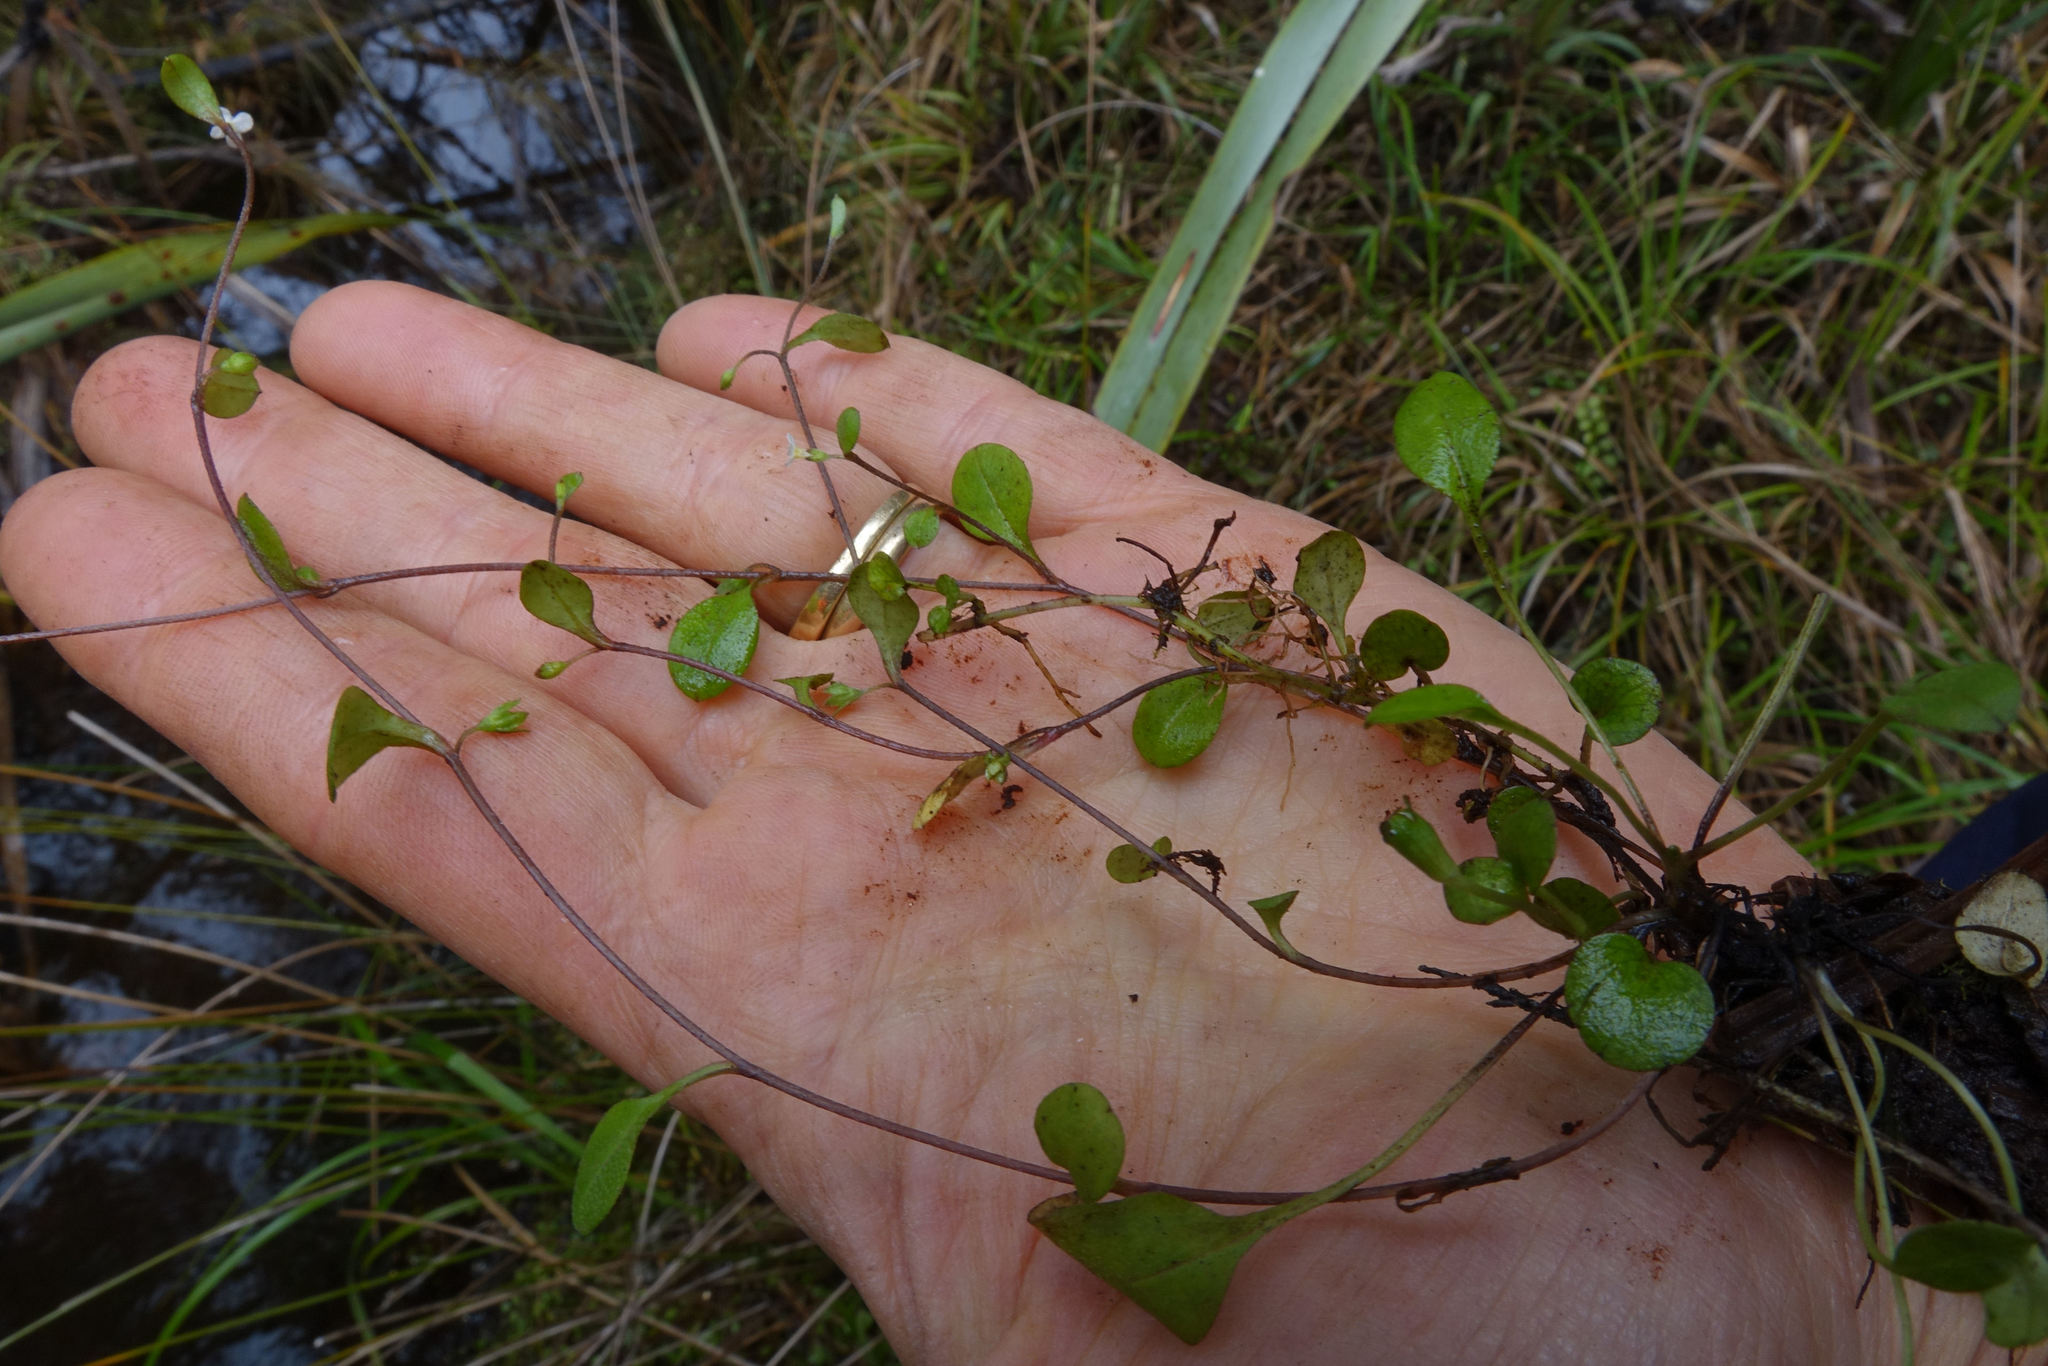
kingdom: Plantae
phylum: Tracheophyta
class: Magnoliopsida
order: Boraginales
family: Boraginaceae
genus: Myosotis
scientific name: Myosotis tenericaulis
